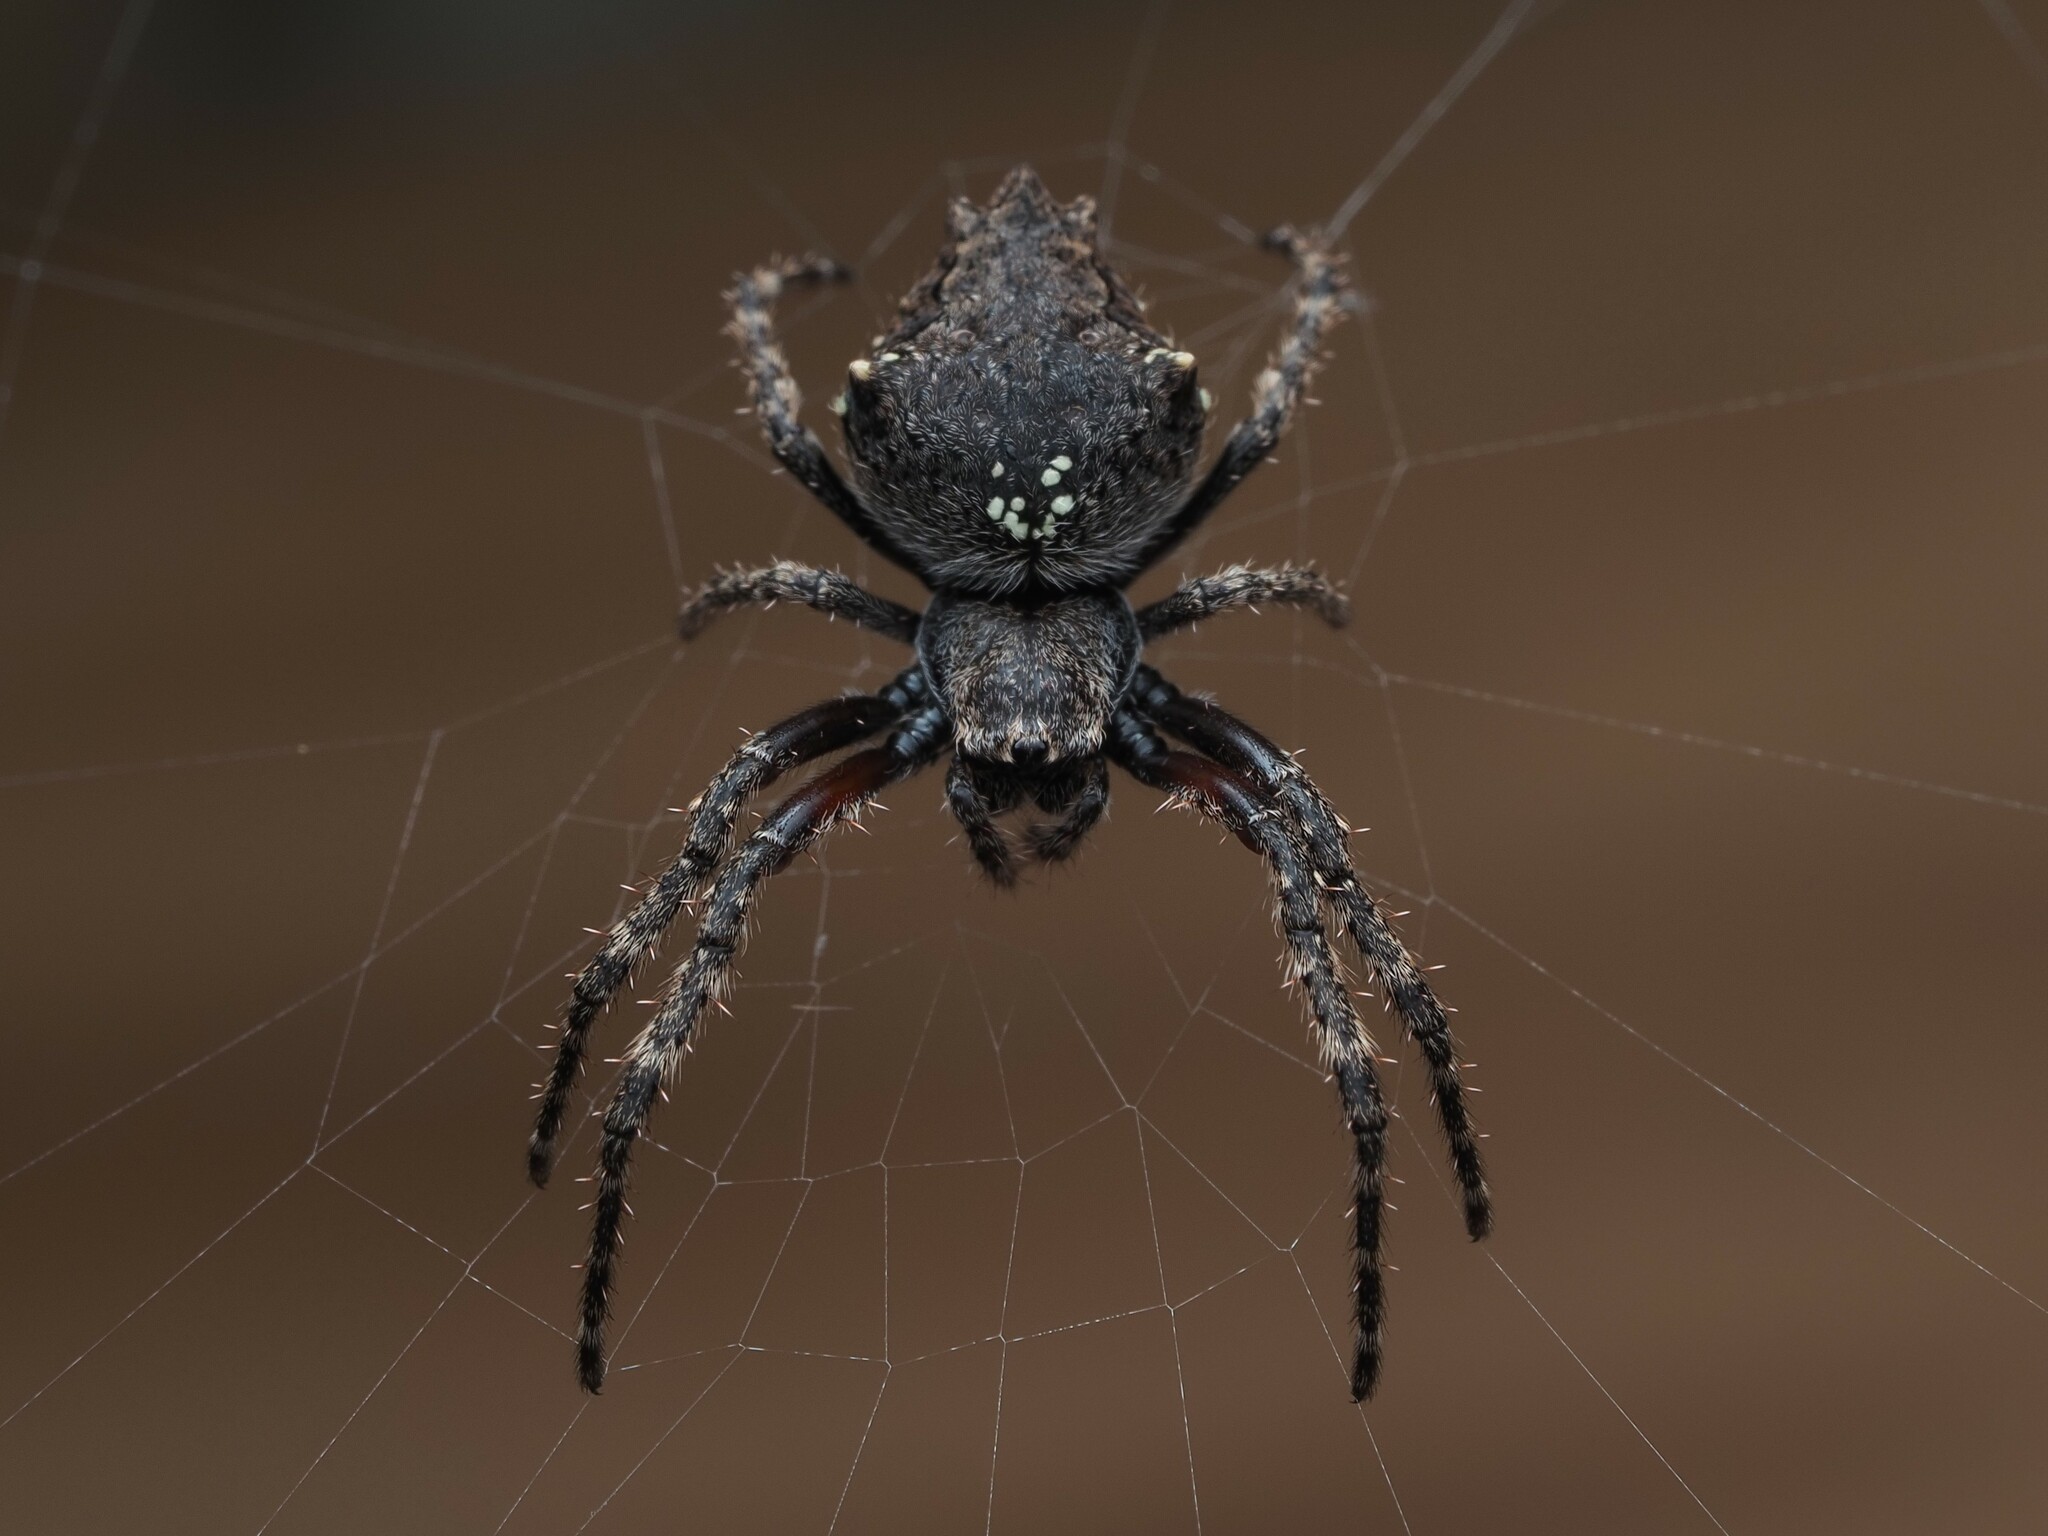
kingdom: Animalia
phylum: Arthropoda
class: Arachnida
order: Araneae
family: Araneidae
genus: Eriophora
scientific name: Eriophora pustulosa
